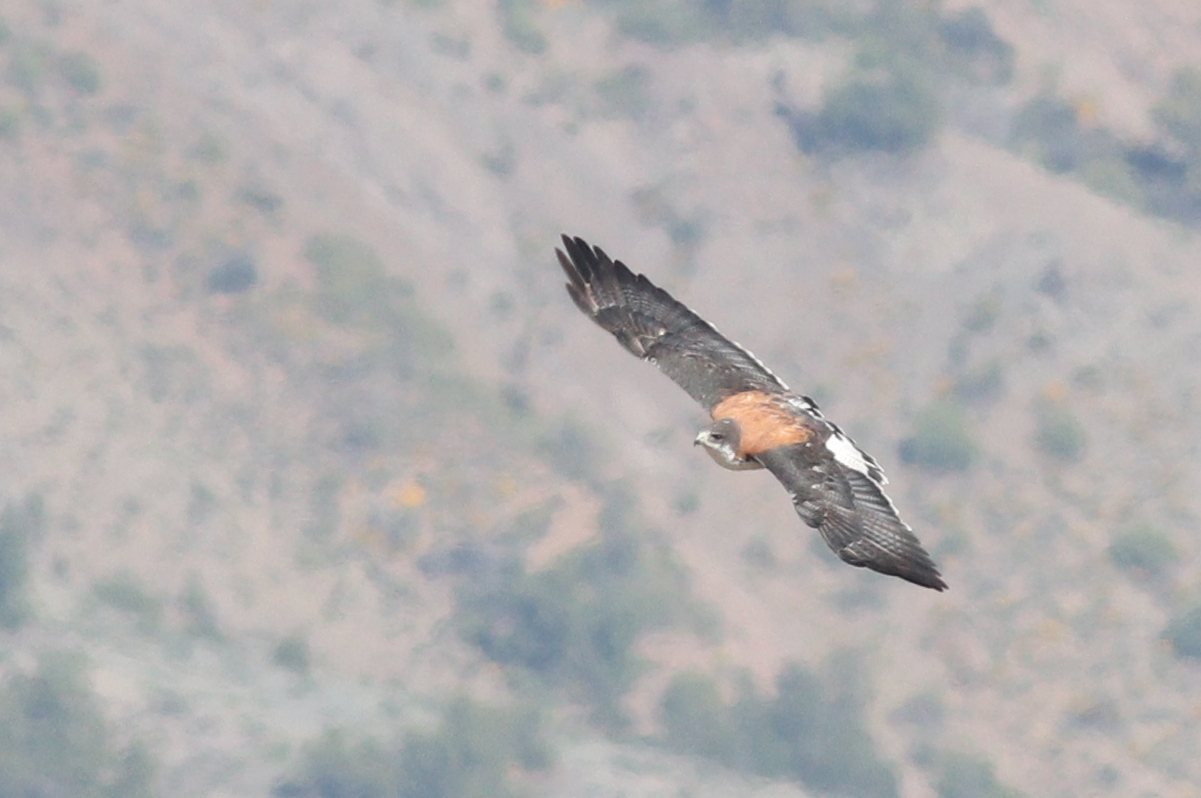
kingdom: Animalia
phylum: Chordata
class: Aves
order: Accipitriformes
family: Accipitridae
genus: Buteo
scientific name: Buteo polyosoma
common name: Variable hawk
